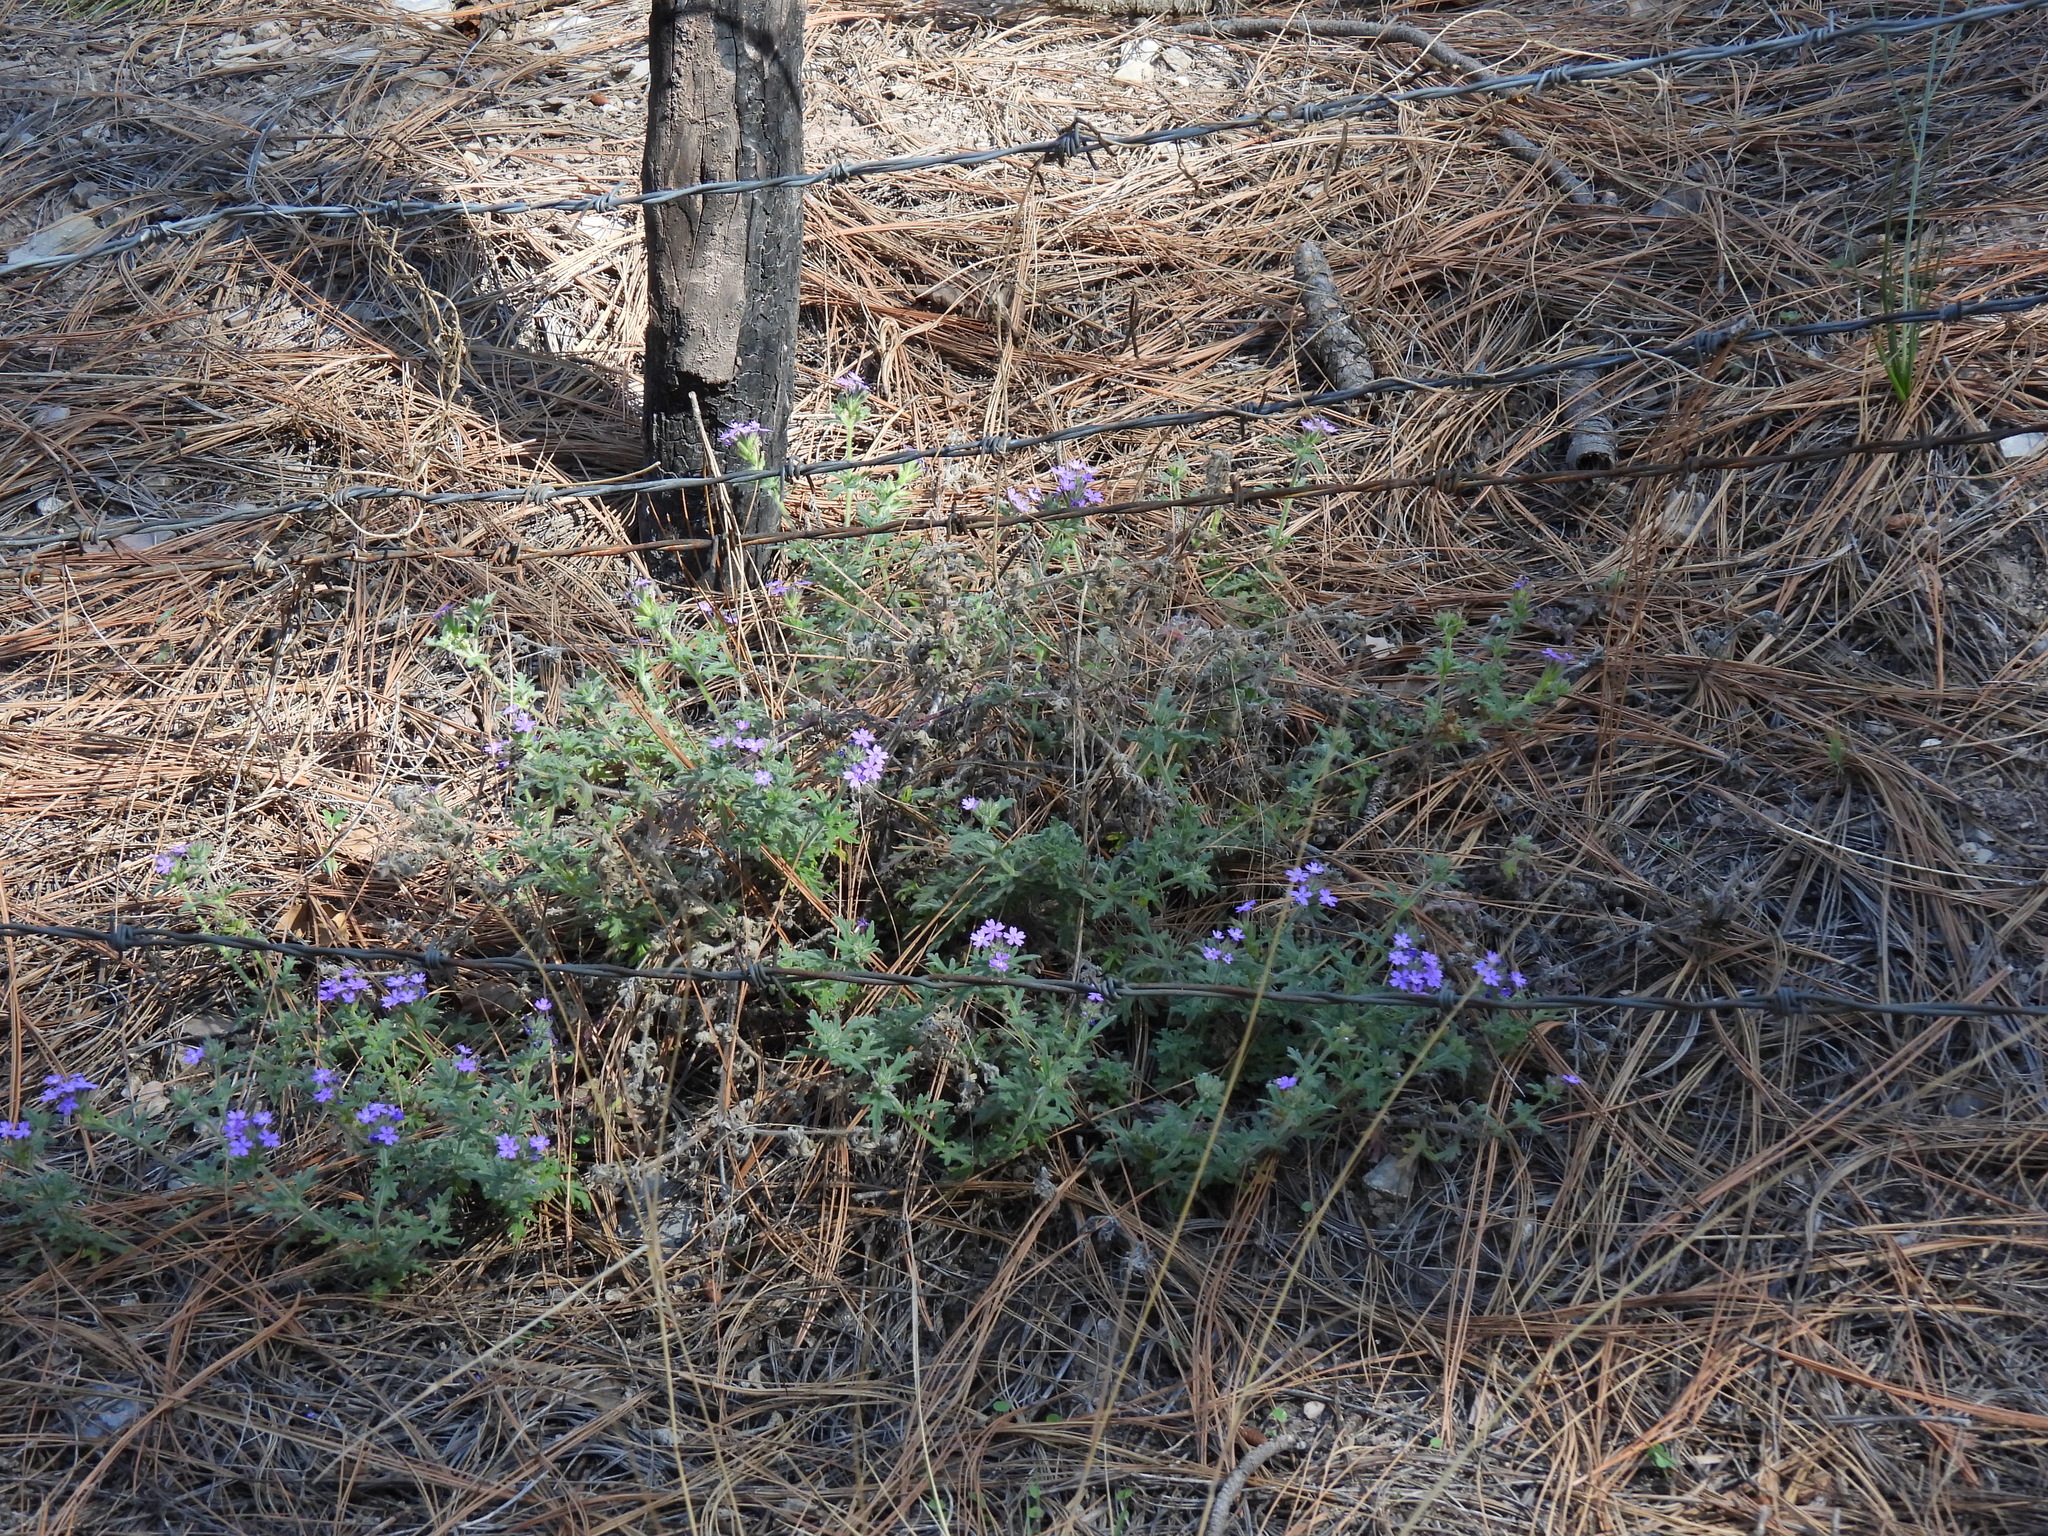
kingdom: Plantae
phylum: Tracheophyta
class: Magnoliopsida
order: Lamiales
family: Verbenaceae
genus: Verbena
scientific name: Verbena bipinnatifida
